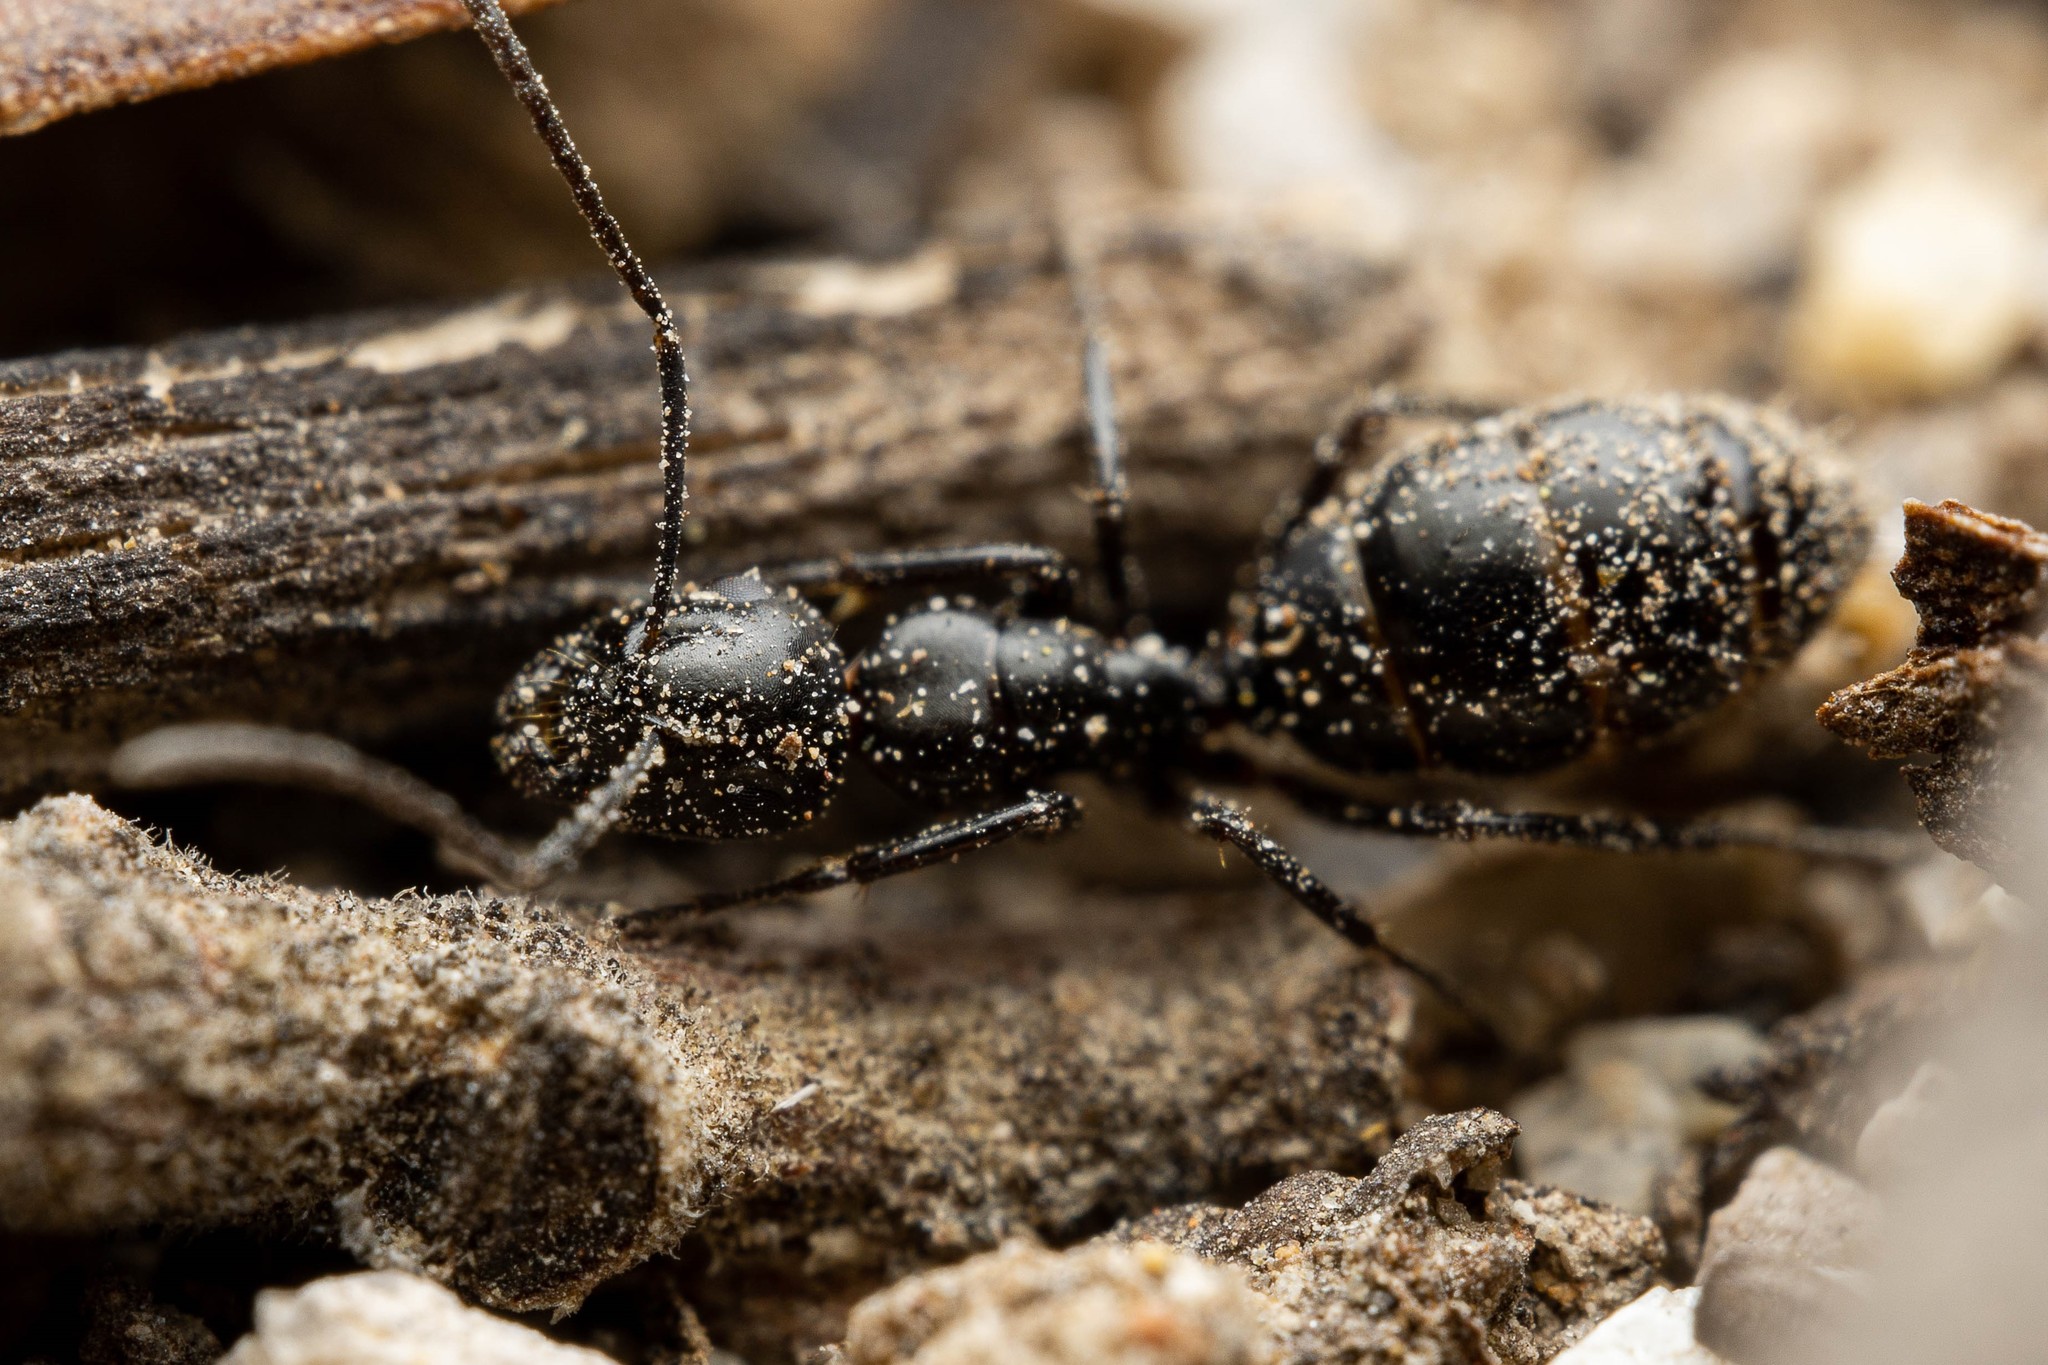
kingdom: Animalia
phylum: Arthropoda
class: Insecta
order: Hymenoptera
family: Formicidae
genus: Camponotus
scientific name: Camponotus hyatti
